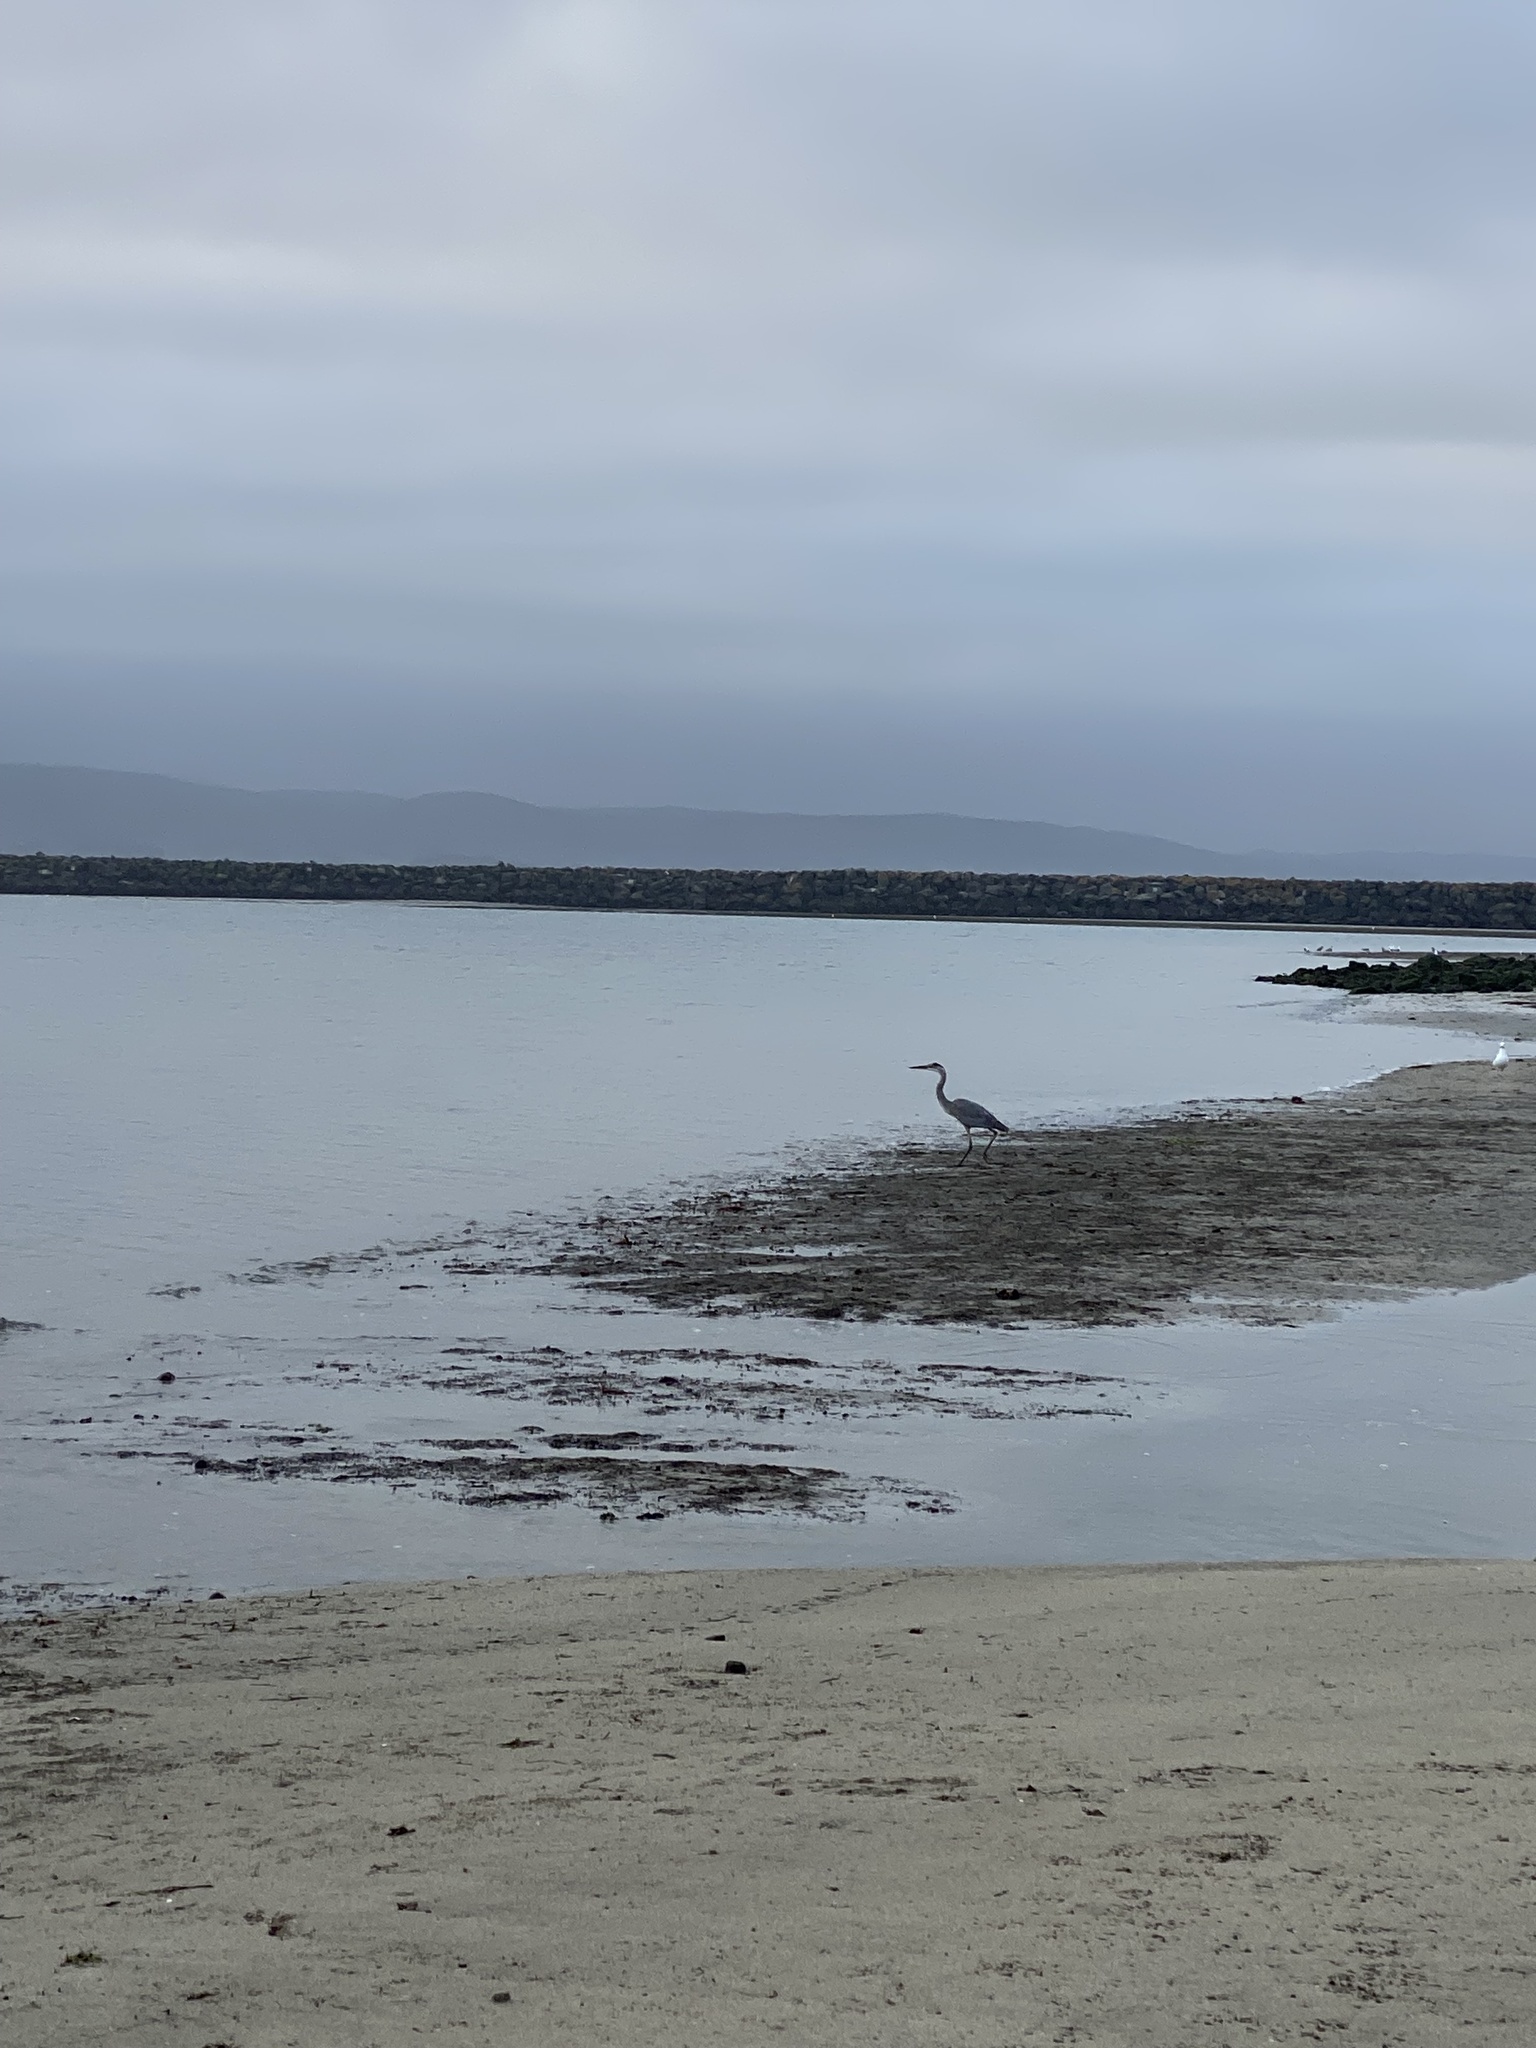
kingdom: Animalia
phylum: Chordata
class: Aves
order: Pelecaniformes
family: Ardeidae
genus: Ardea
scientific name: Ardea herodias
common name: Great blue heron
